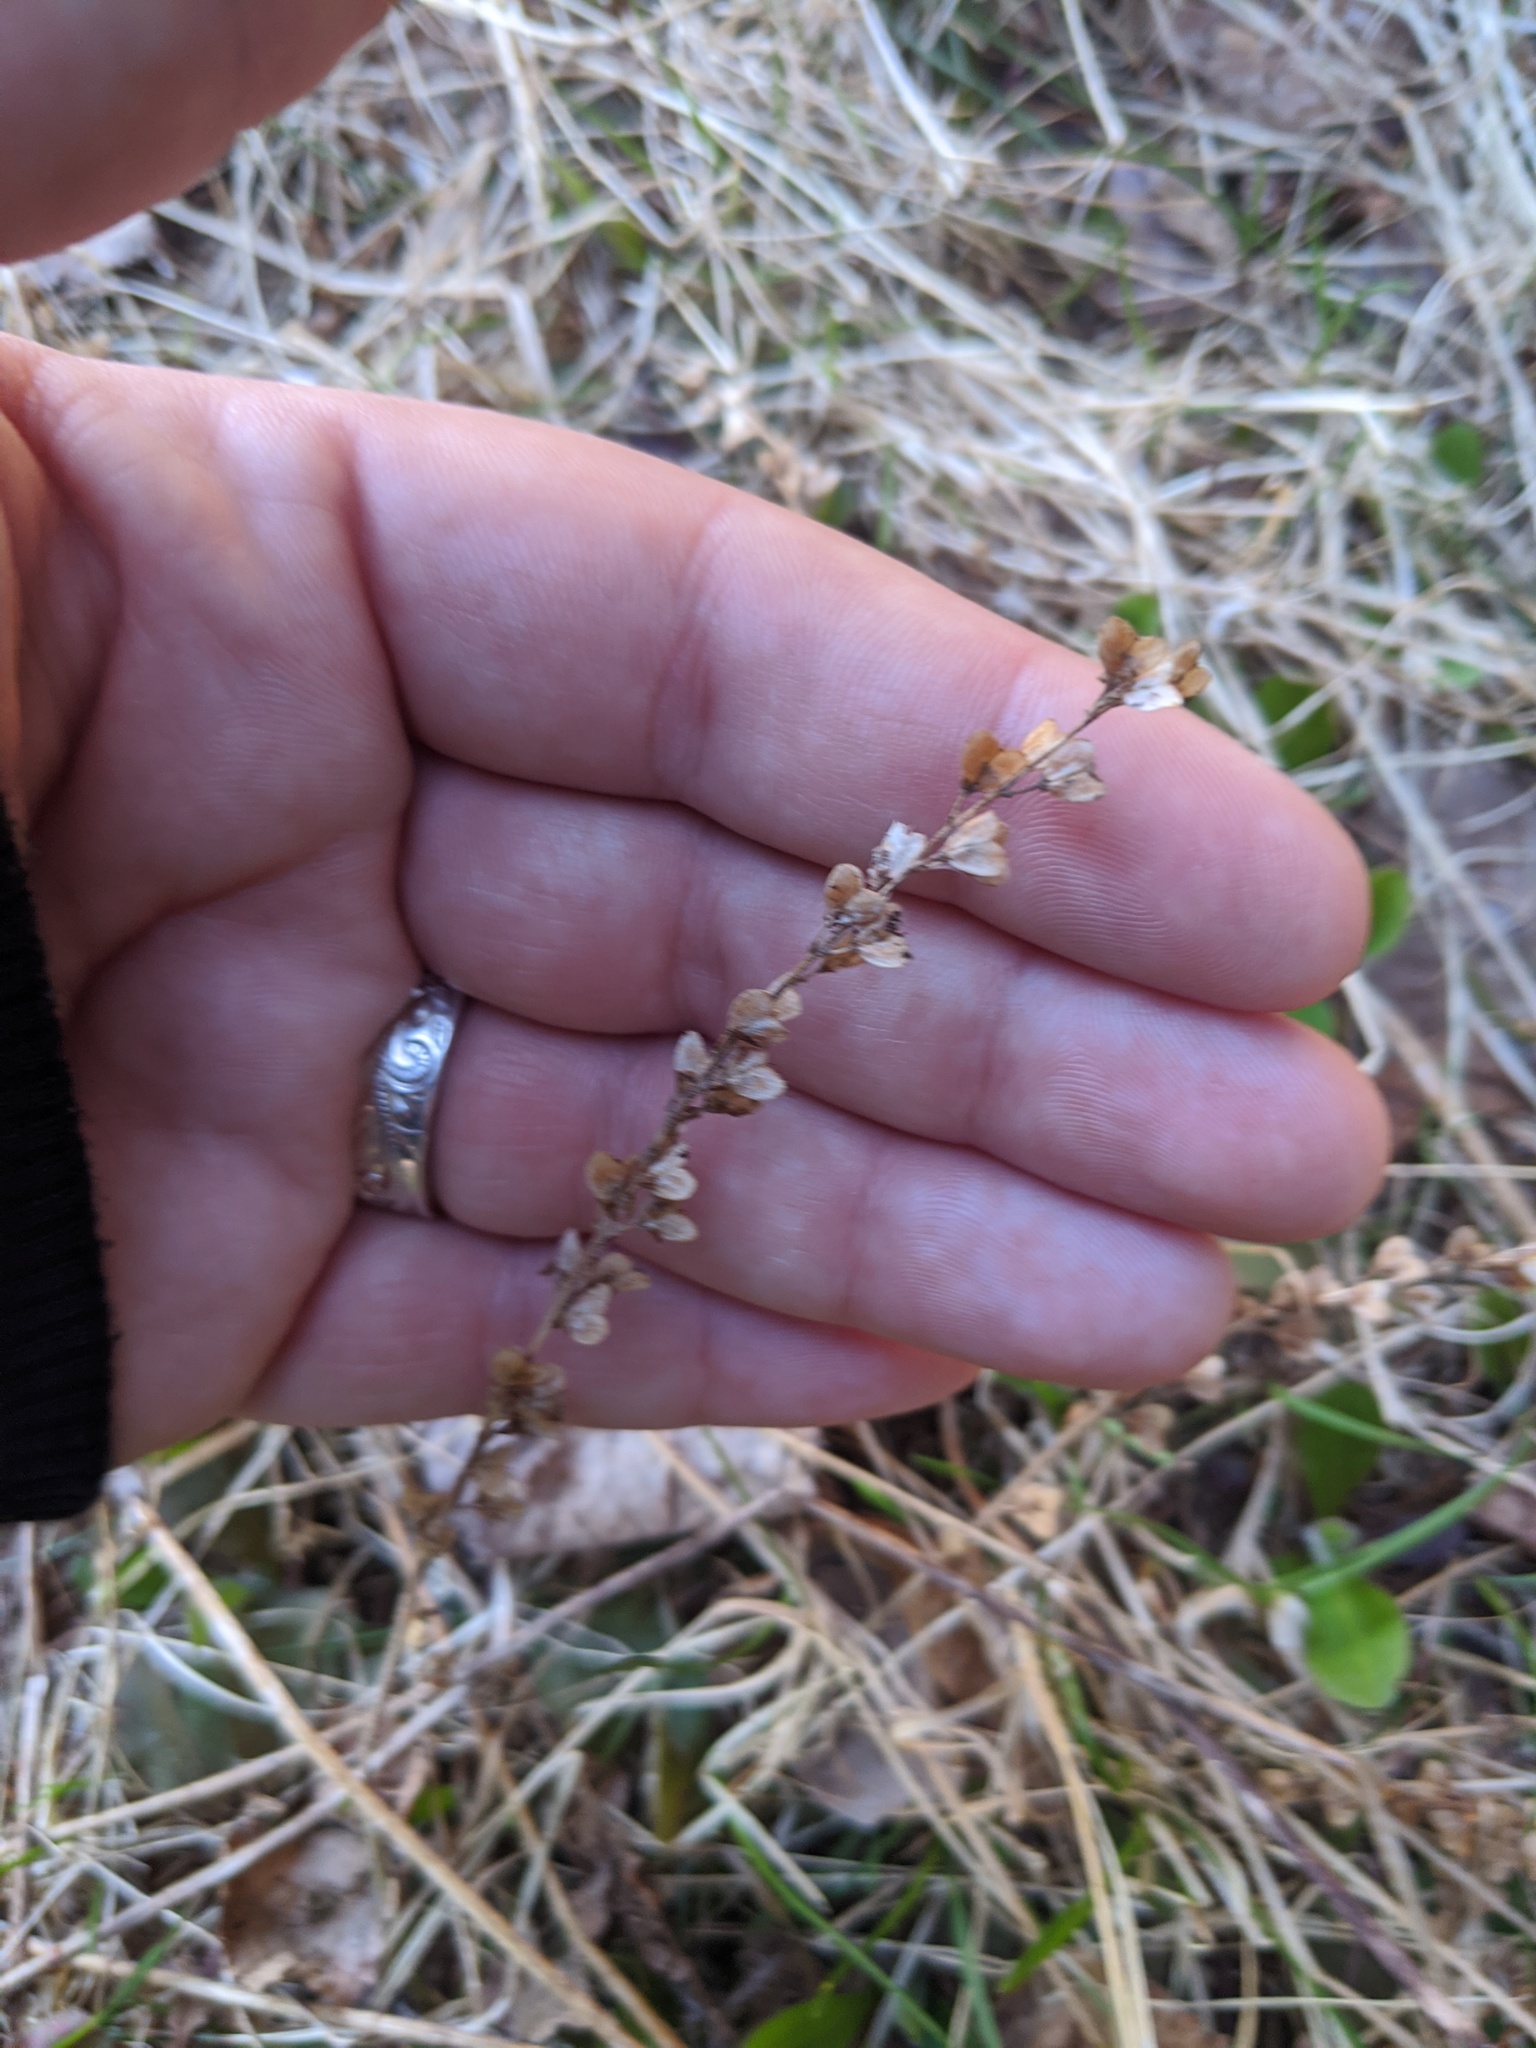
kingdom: Plantae
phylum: Tracheophyta
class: Magnoliopsida
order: Lamiales
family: Plantaginaceae
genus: Veronica
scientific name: Veronica officinalis
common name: Common speedwell
